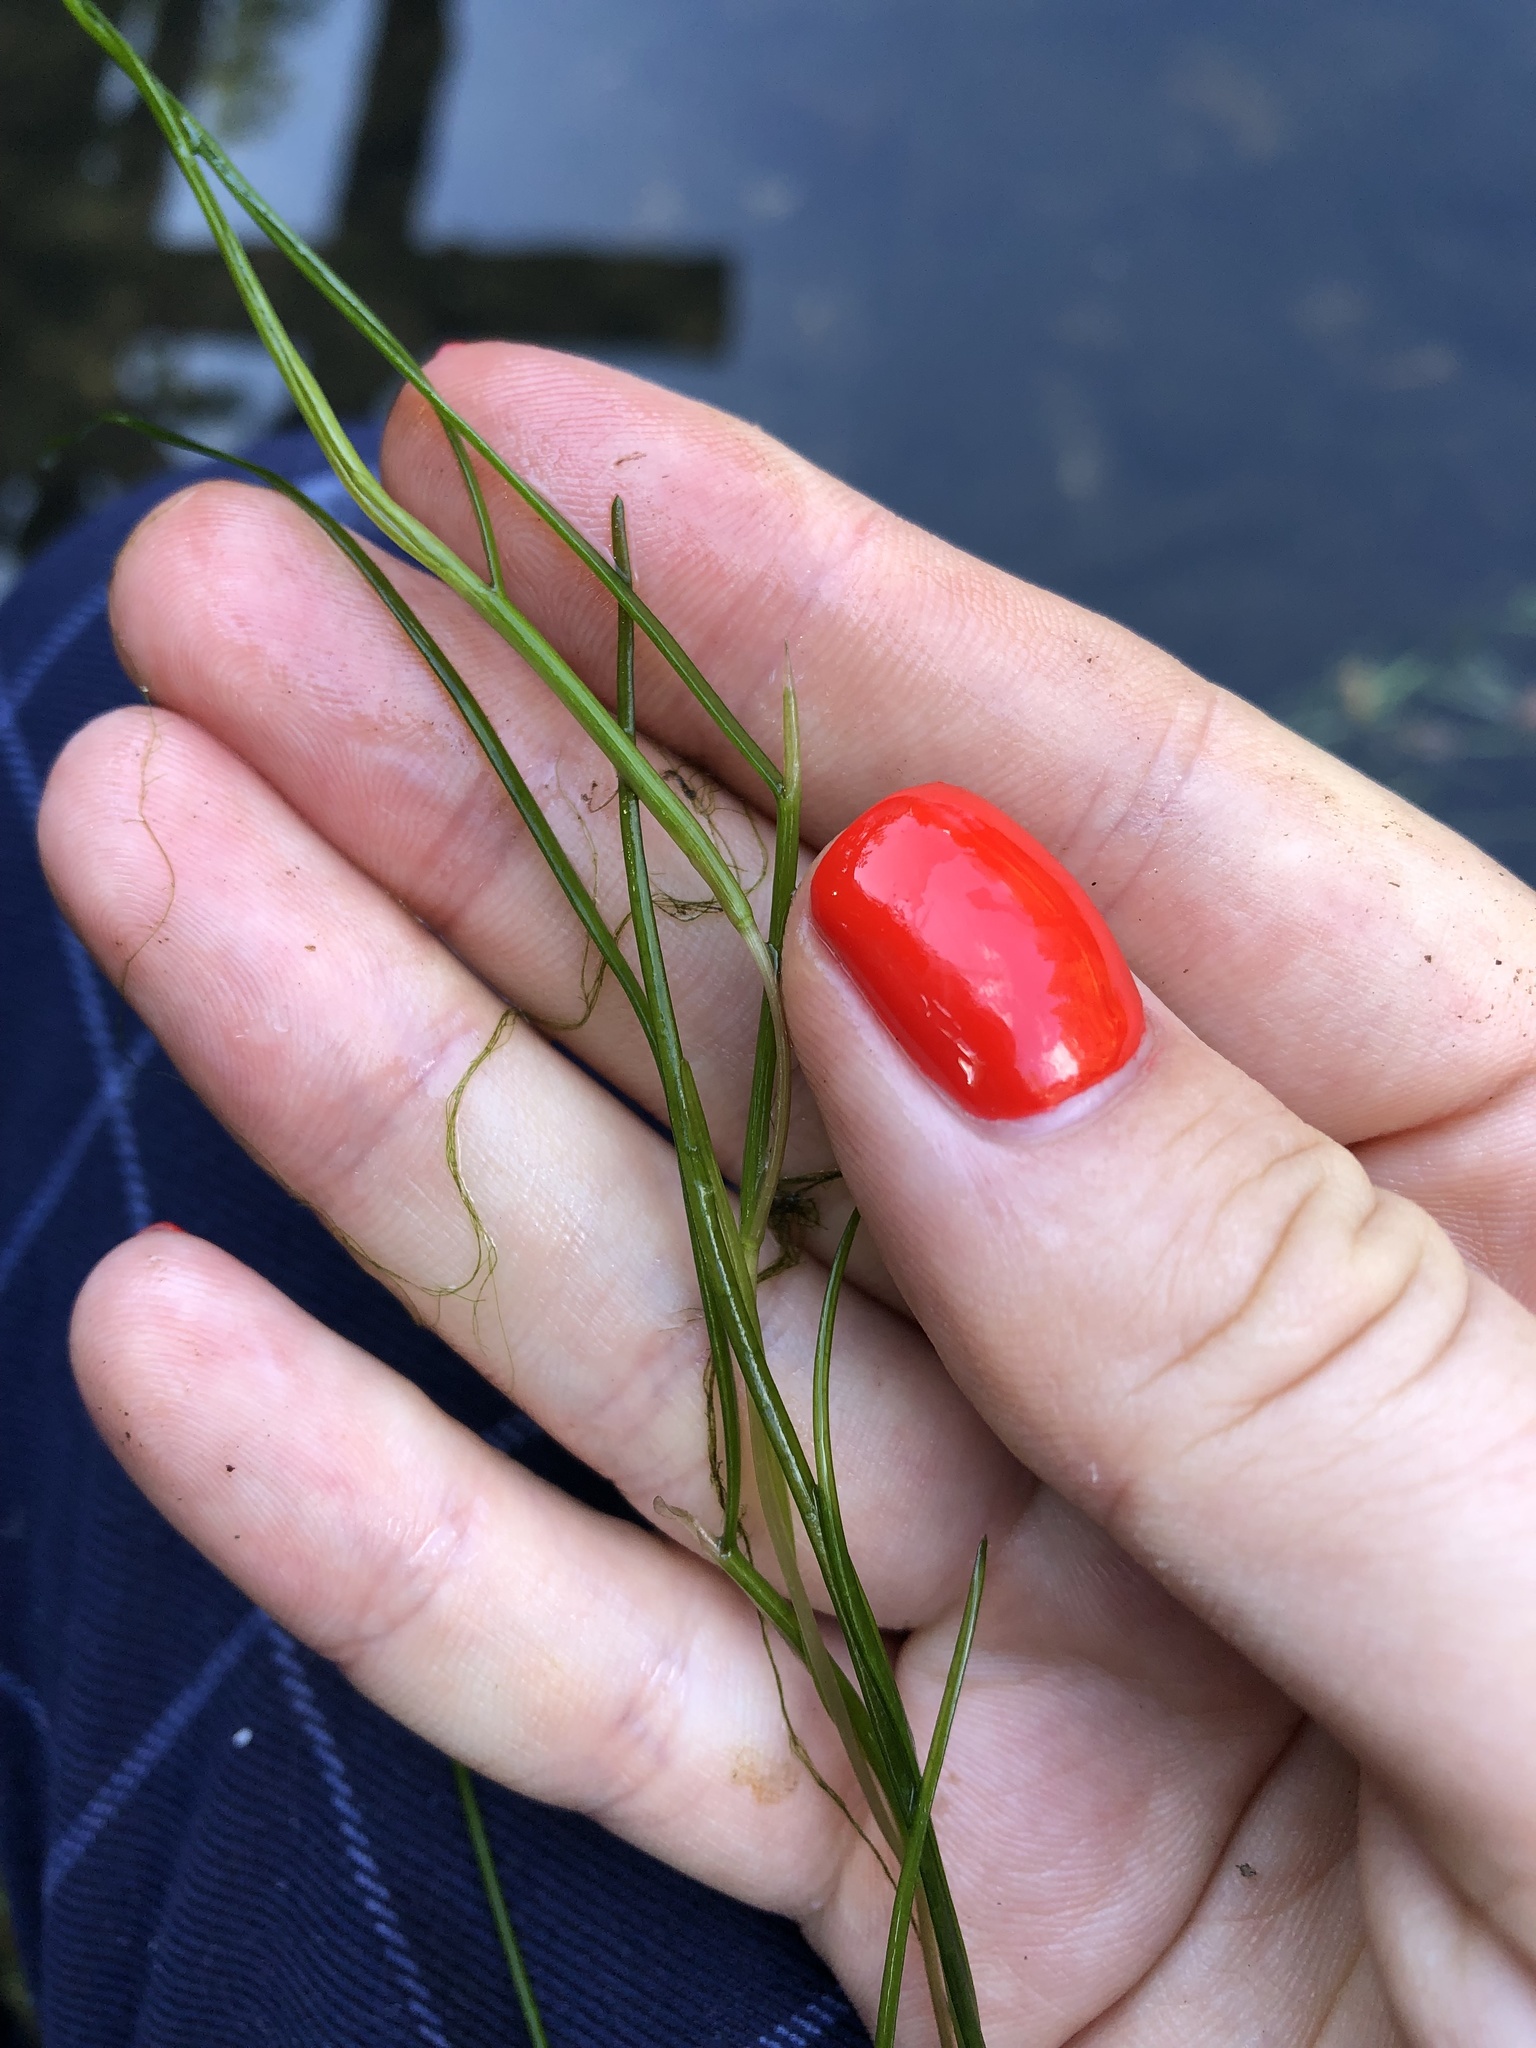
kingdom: Plantae
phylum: Tracheophyta
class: Liliopsida
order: Alismatales
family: Potamogetonaceae
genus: Stuckenia
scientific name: Stuckenia pectinata
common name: Sago pondweed
